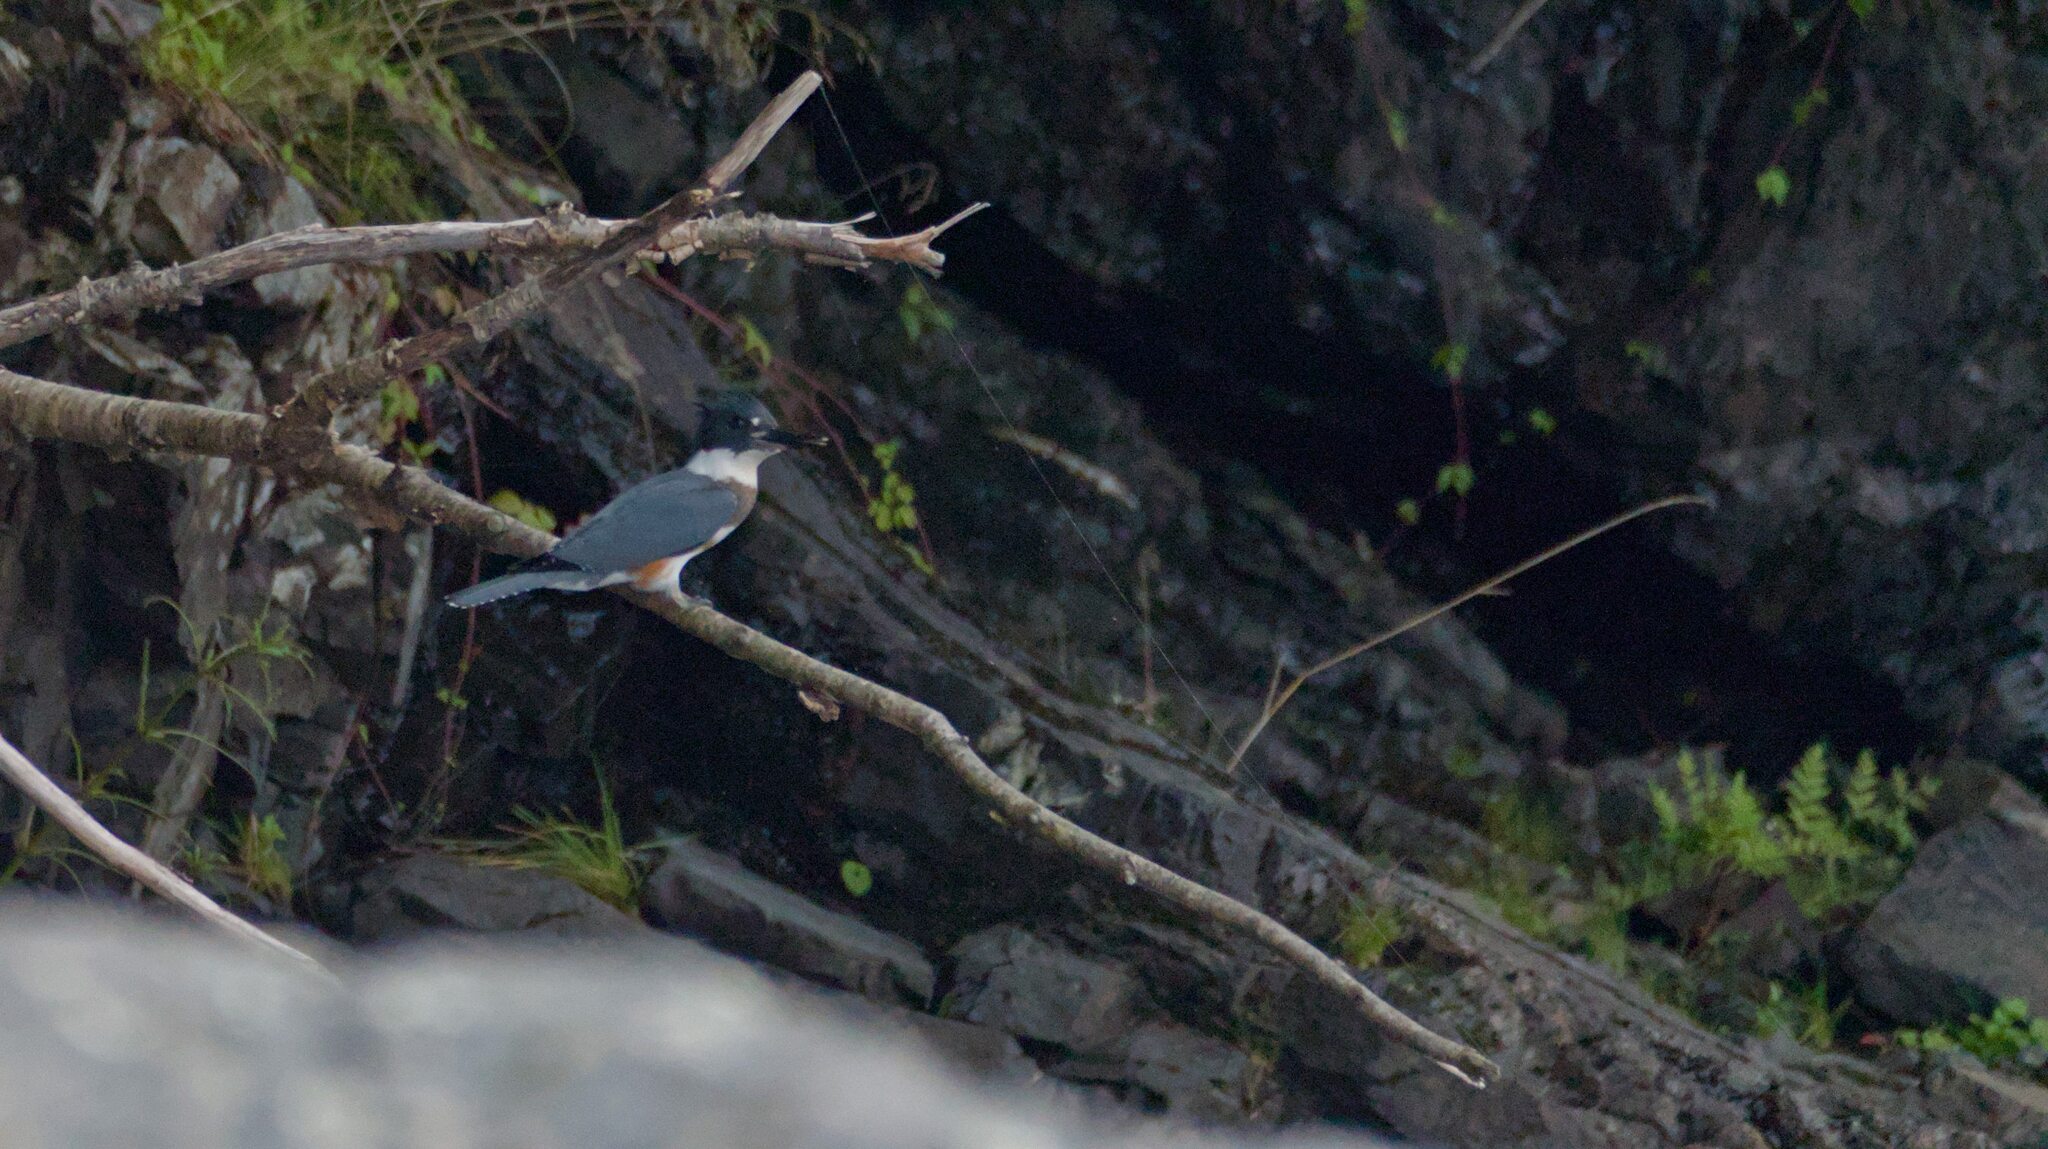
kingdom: Animalia
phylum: Chordata
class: Aves
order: Coraciiformes
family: Alcedinidae
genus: Megaceryle
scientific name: Megaceryle alcyon
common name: Belted kingfisher
